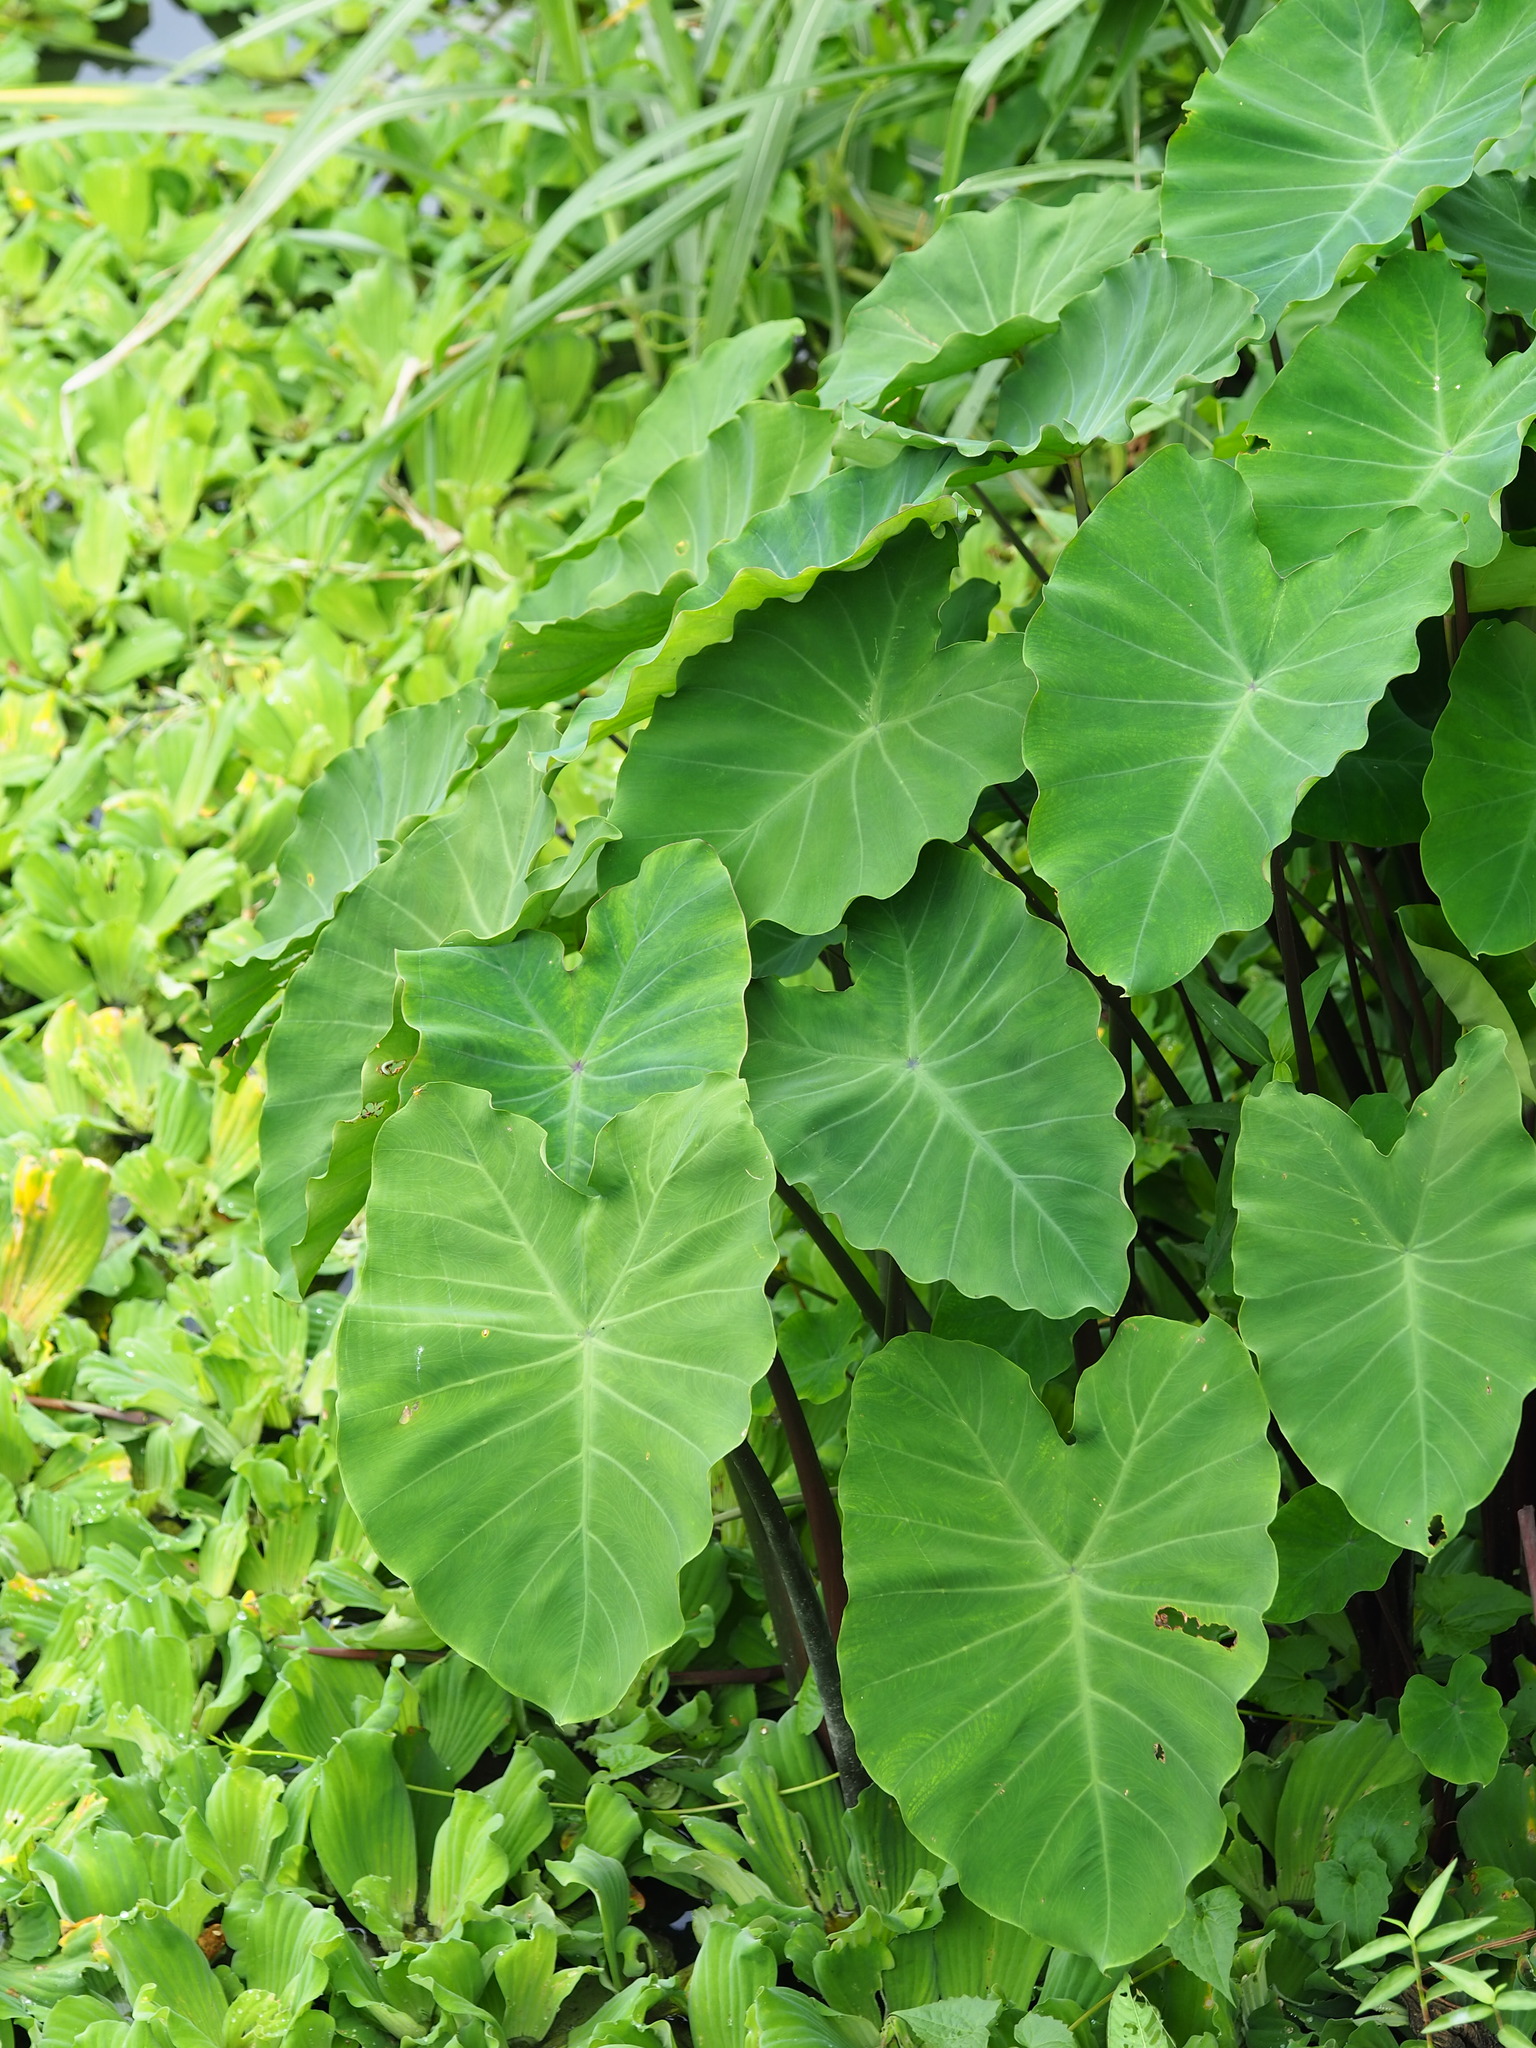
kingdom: Plantae
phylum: Tracheophyta
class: Liliopsida
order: Alismatales
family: Araceae
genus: Colocasia
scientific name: Colocasia esculenta
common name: Taro
